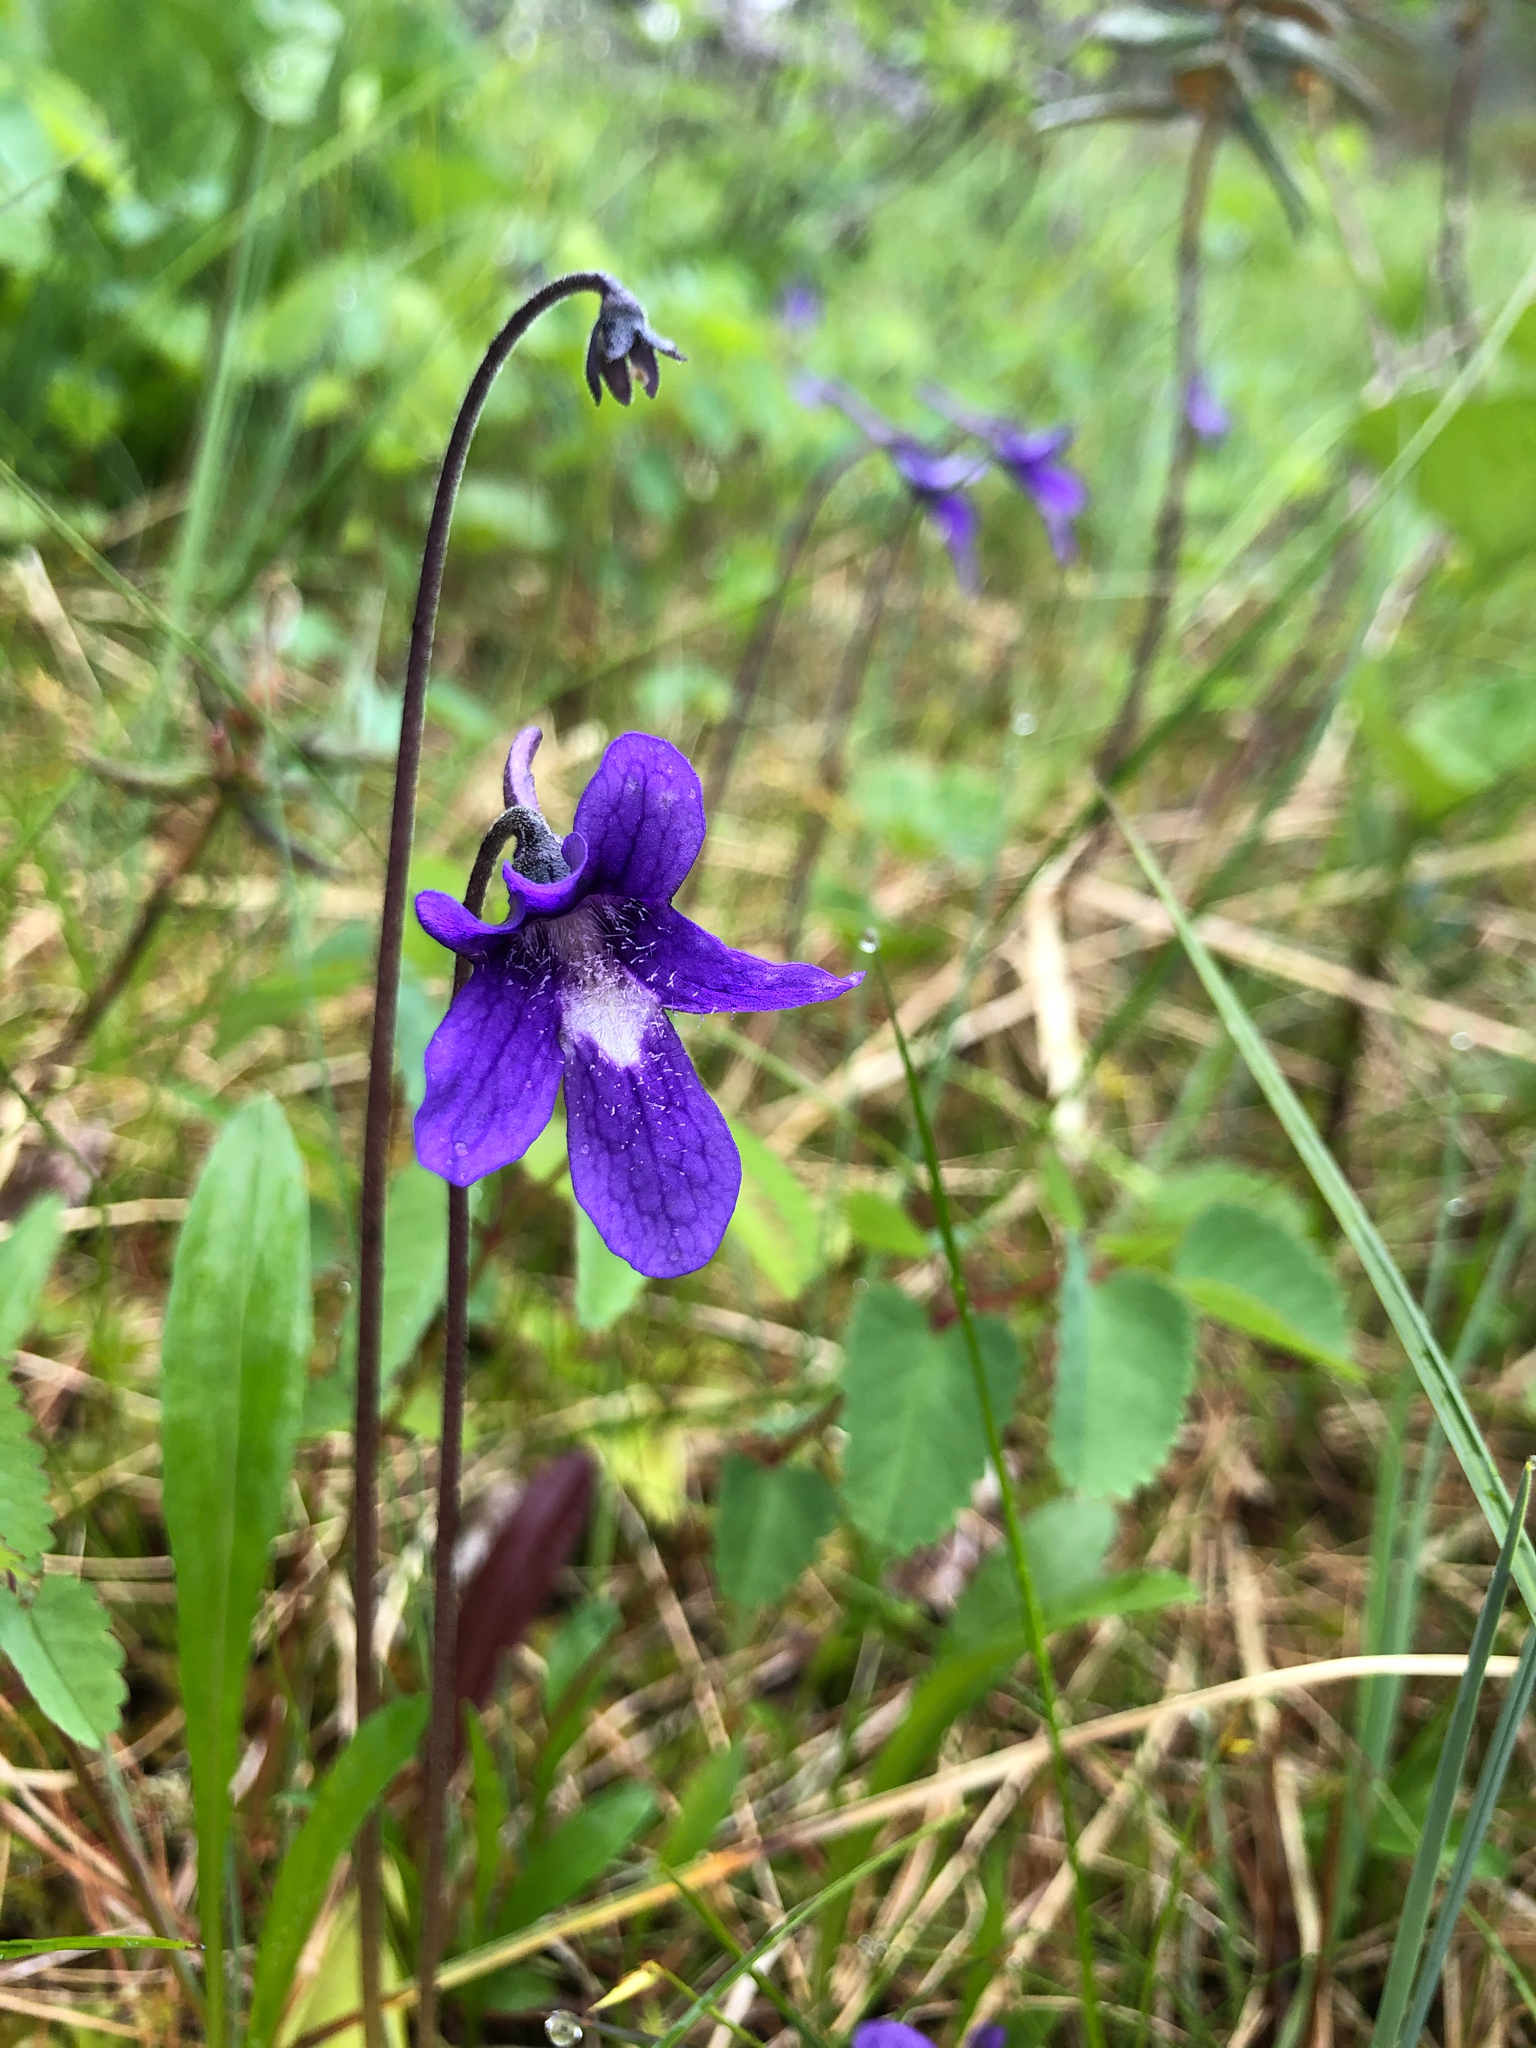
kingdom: Plantae
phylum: Tracheophyta
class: Magnoliopsida
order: Lamiales
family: Lentibulariaceae
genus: Pinguicula
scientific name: Pinguicula vulgaris
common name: Common butterwort
